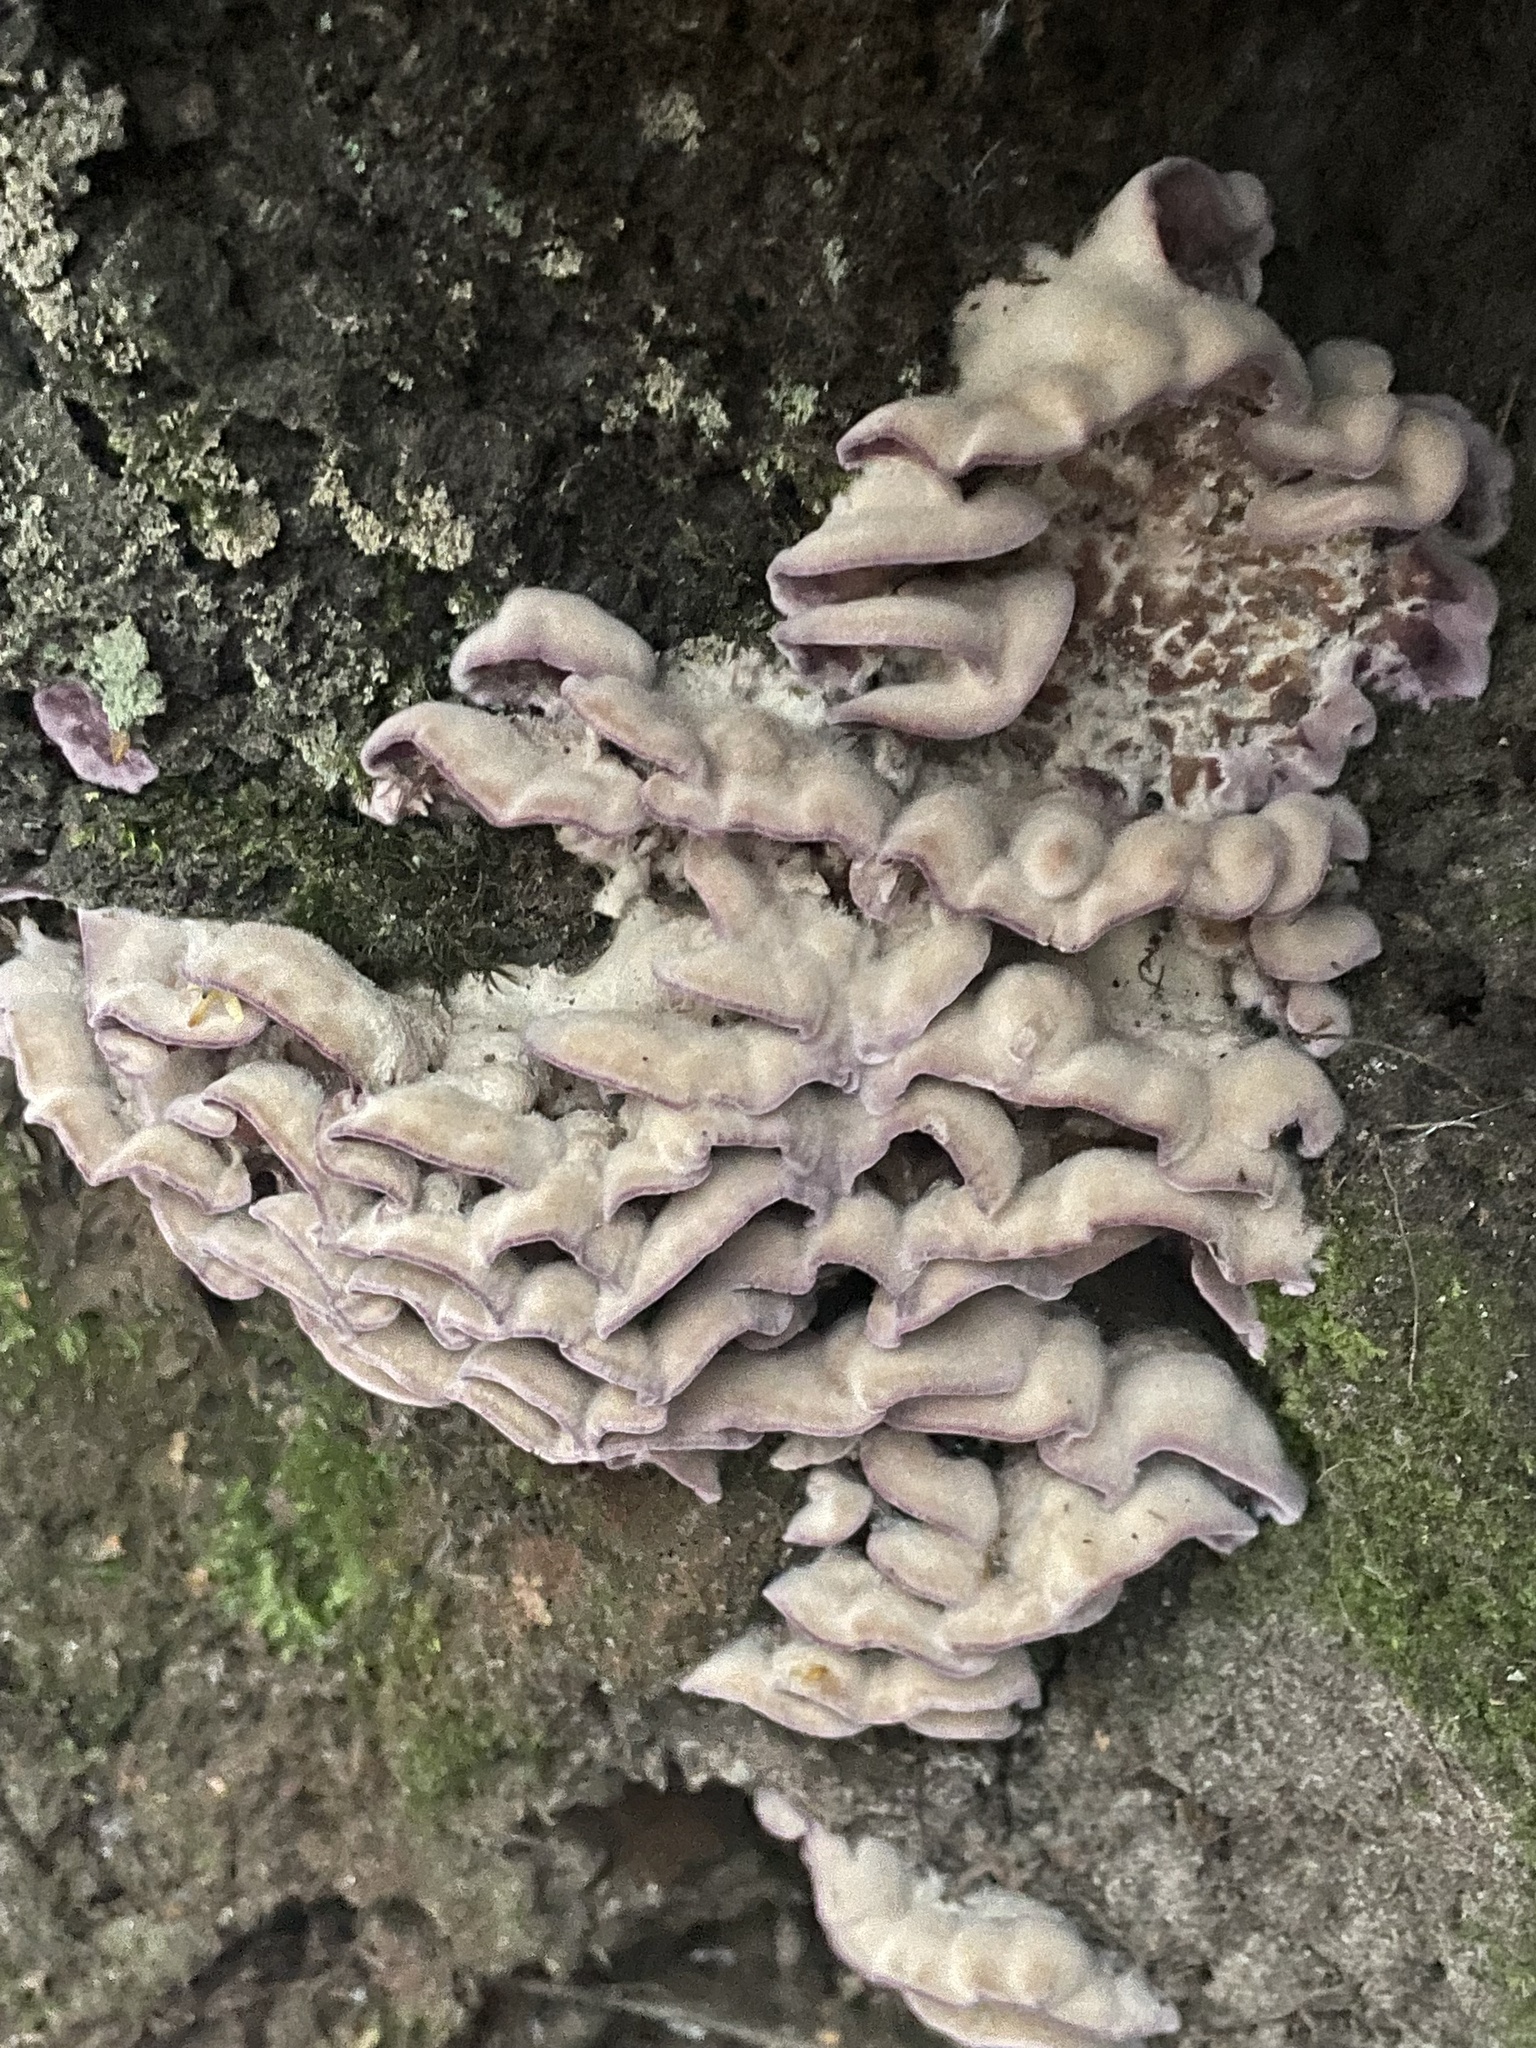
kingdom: Fungi
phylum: Basidiomycota
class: Agaricomycetes
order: Agaricales
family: Cyphellaceae
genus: Chondrostereum
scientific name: Chondrostereum purpureum
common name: Silver leaf disease
